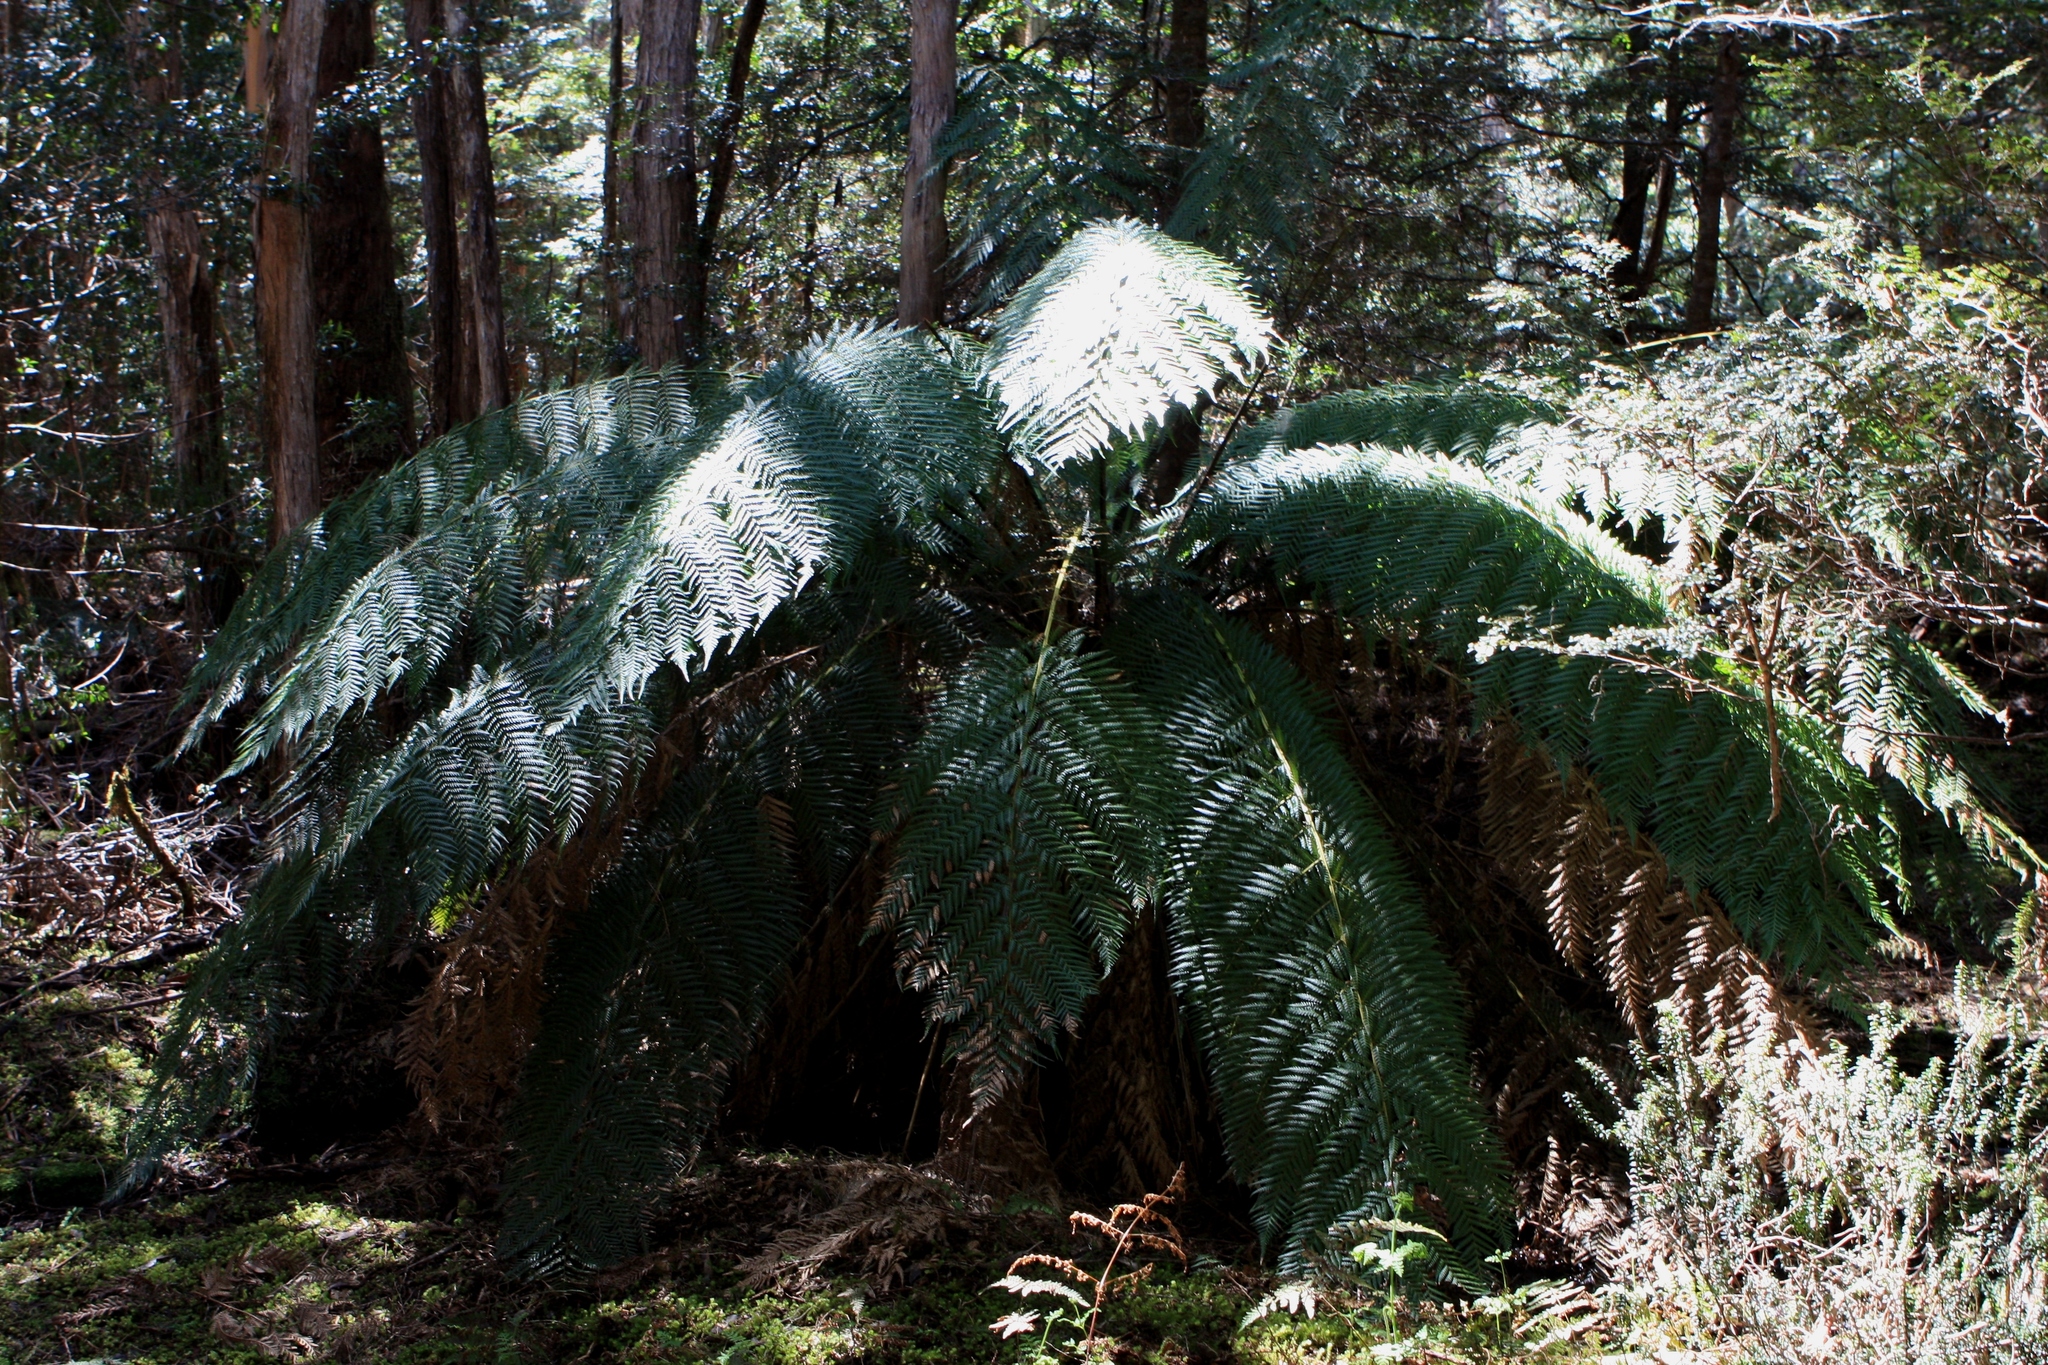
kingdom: Plantae
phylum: Tracheophyta
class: Polypodiopsida
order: Cyatheales
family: Dicksoniaceae
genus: Dicksonia
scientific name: Dicksonia antarctica
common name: Australian treefern
